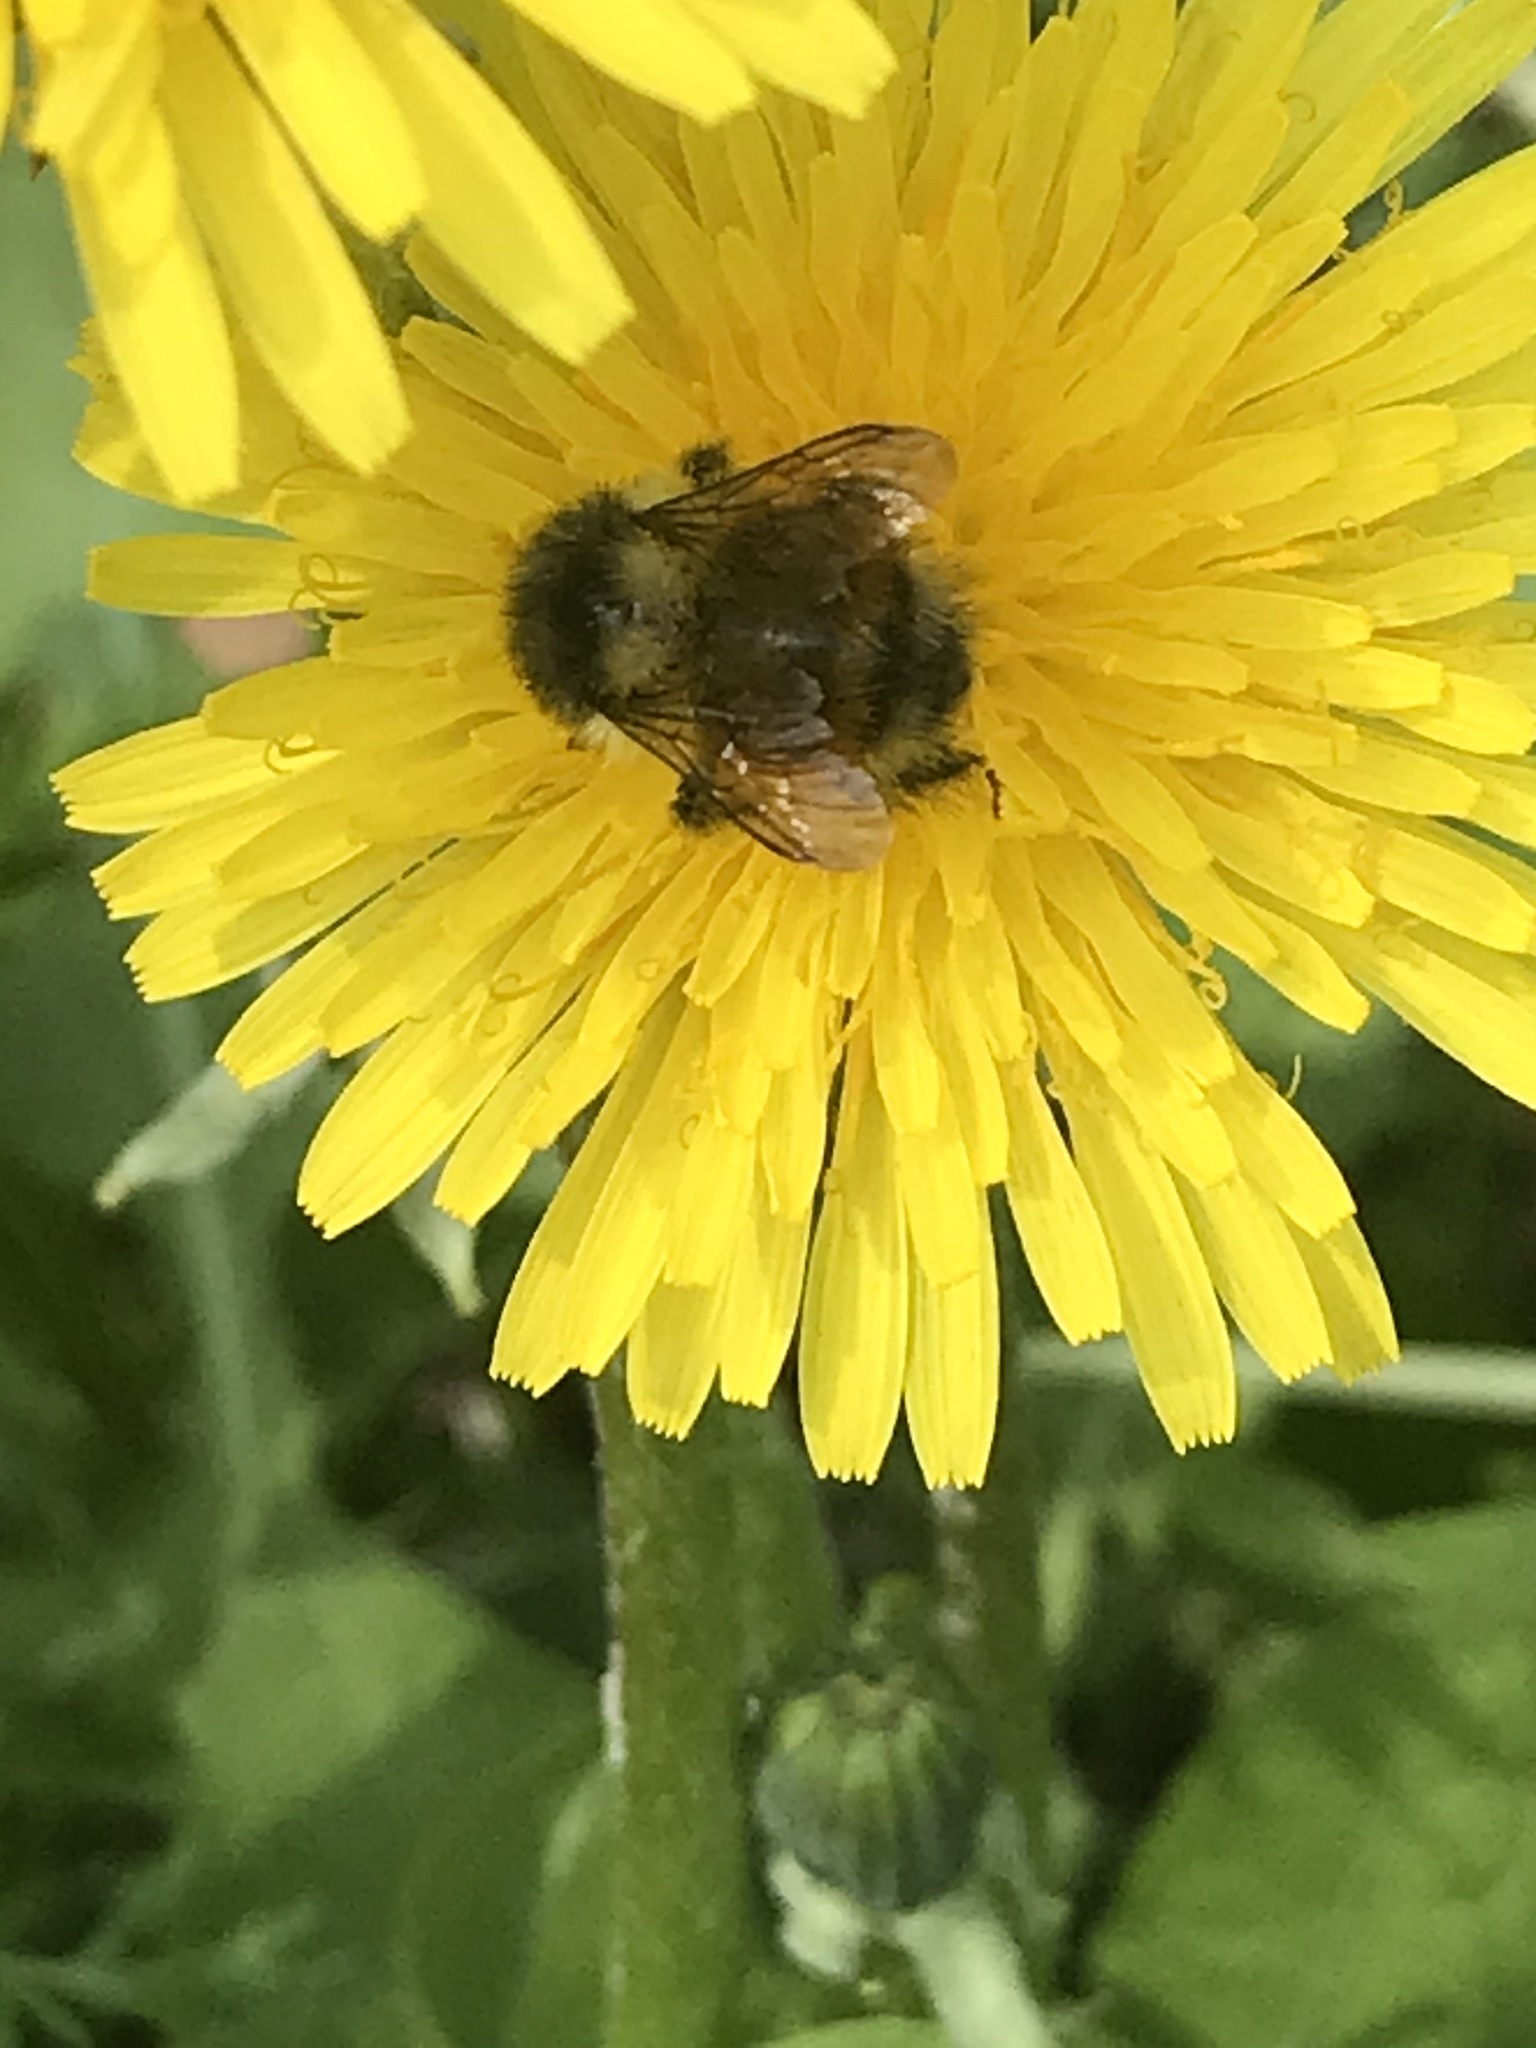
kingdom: Animalia
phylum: Arthropoda
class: Insecta
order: Hymenoptera
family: Apidae
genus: Bombus
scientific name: Bombus melanopygus
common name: Black tail bumble bee
